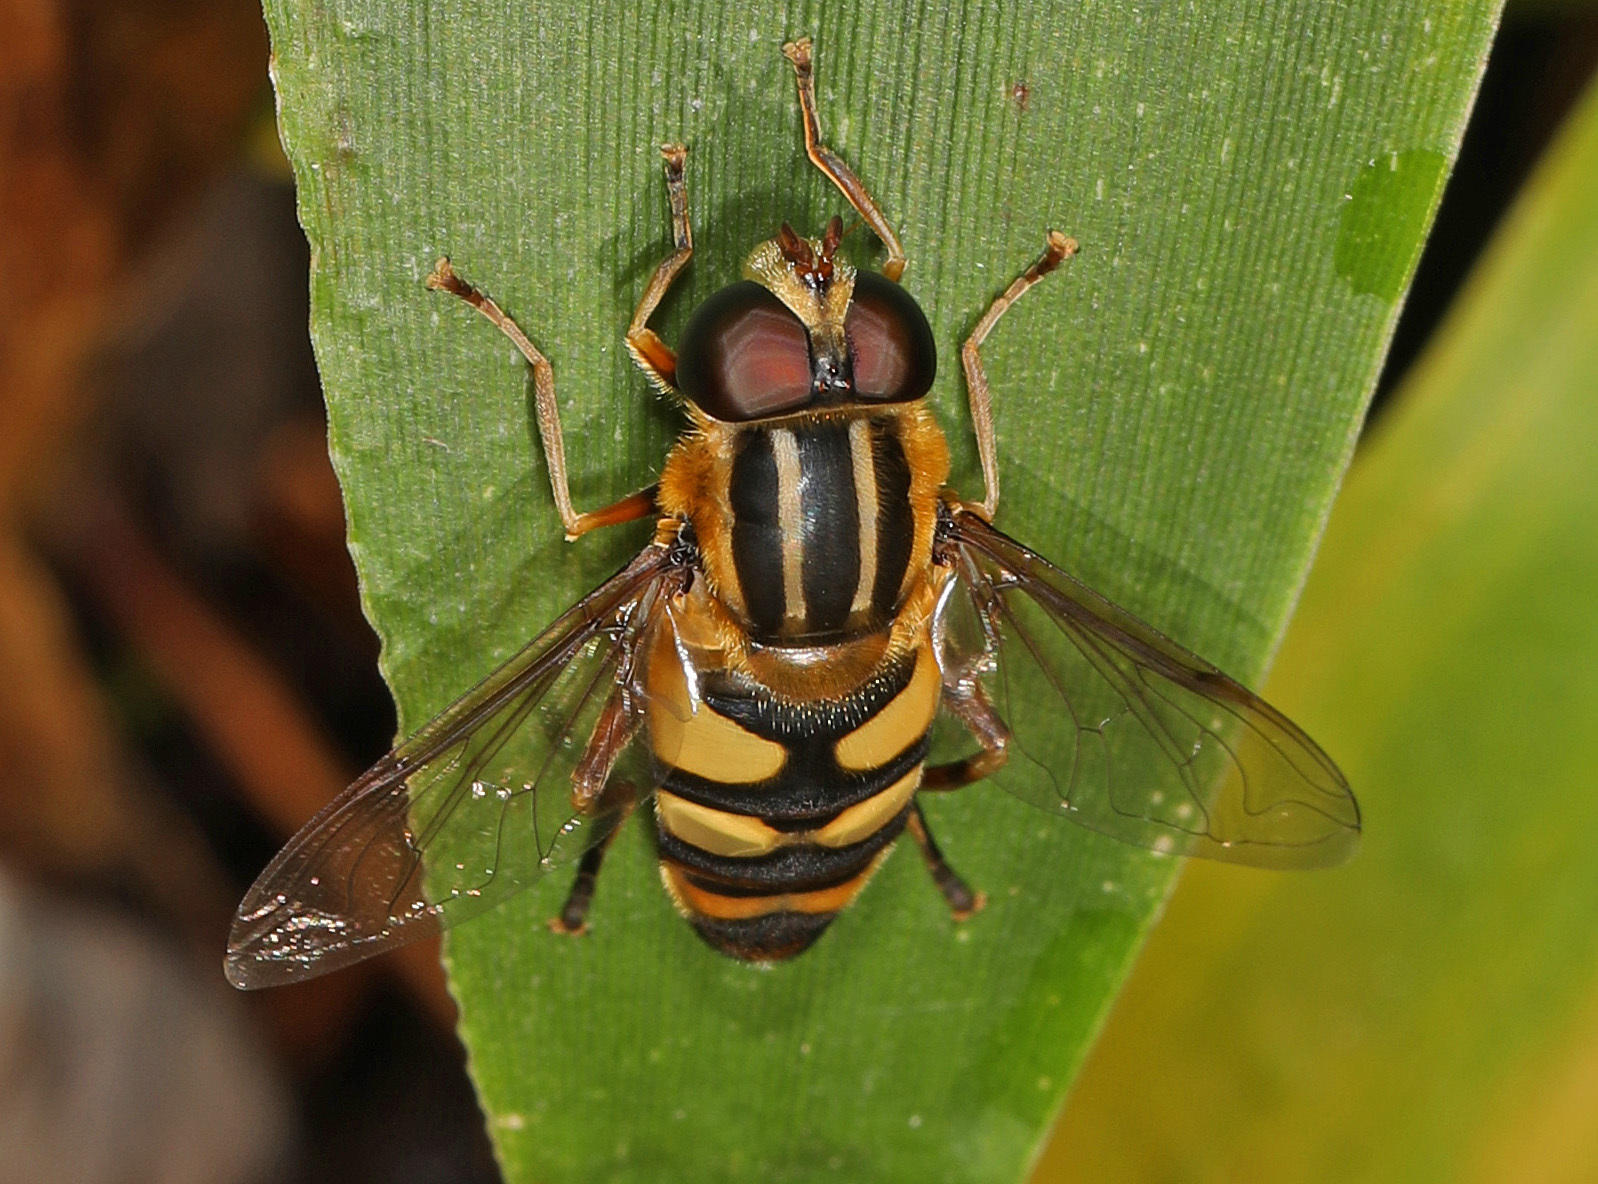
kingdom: Animalia
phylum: Arthropoda
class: Insecta
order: Diptera
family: Syrphidae
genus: Helophilus
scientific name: Helophilus fasciatus
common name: Narrow-headed marsh fly
